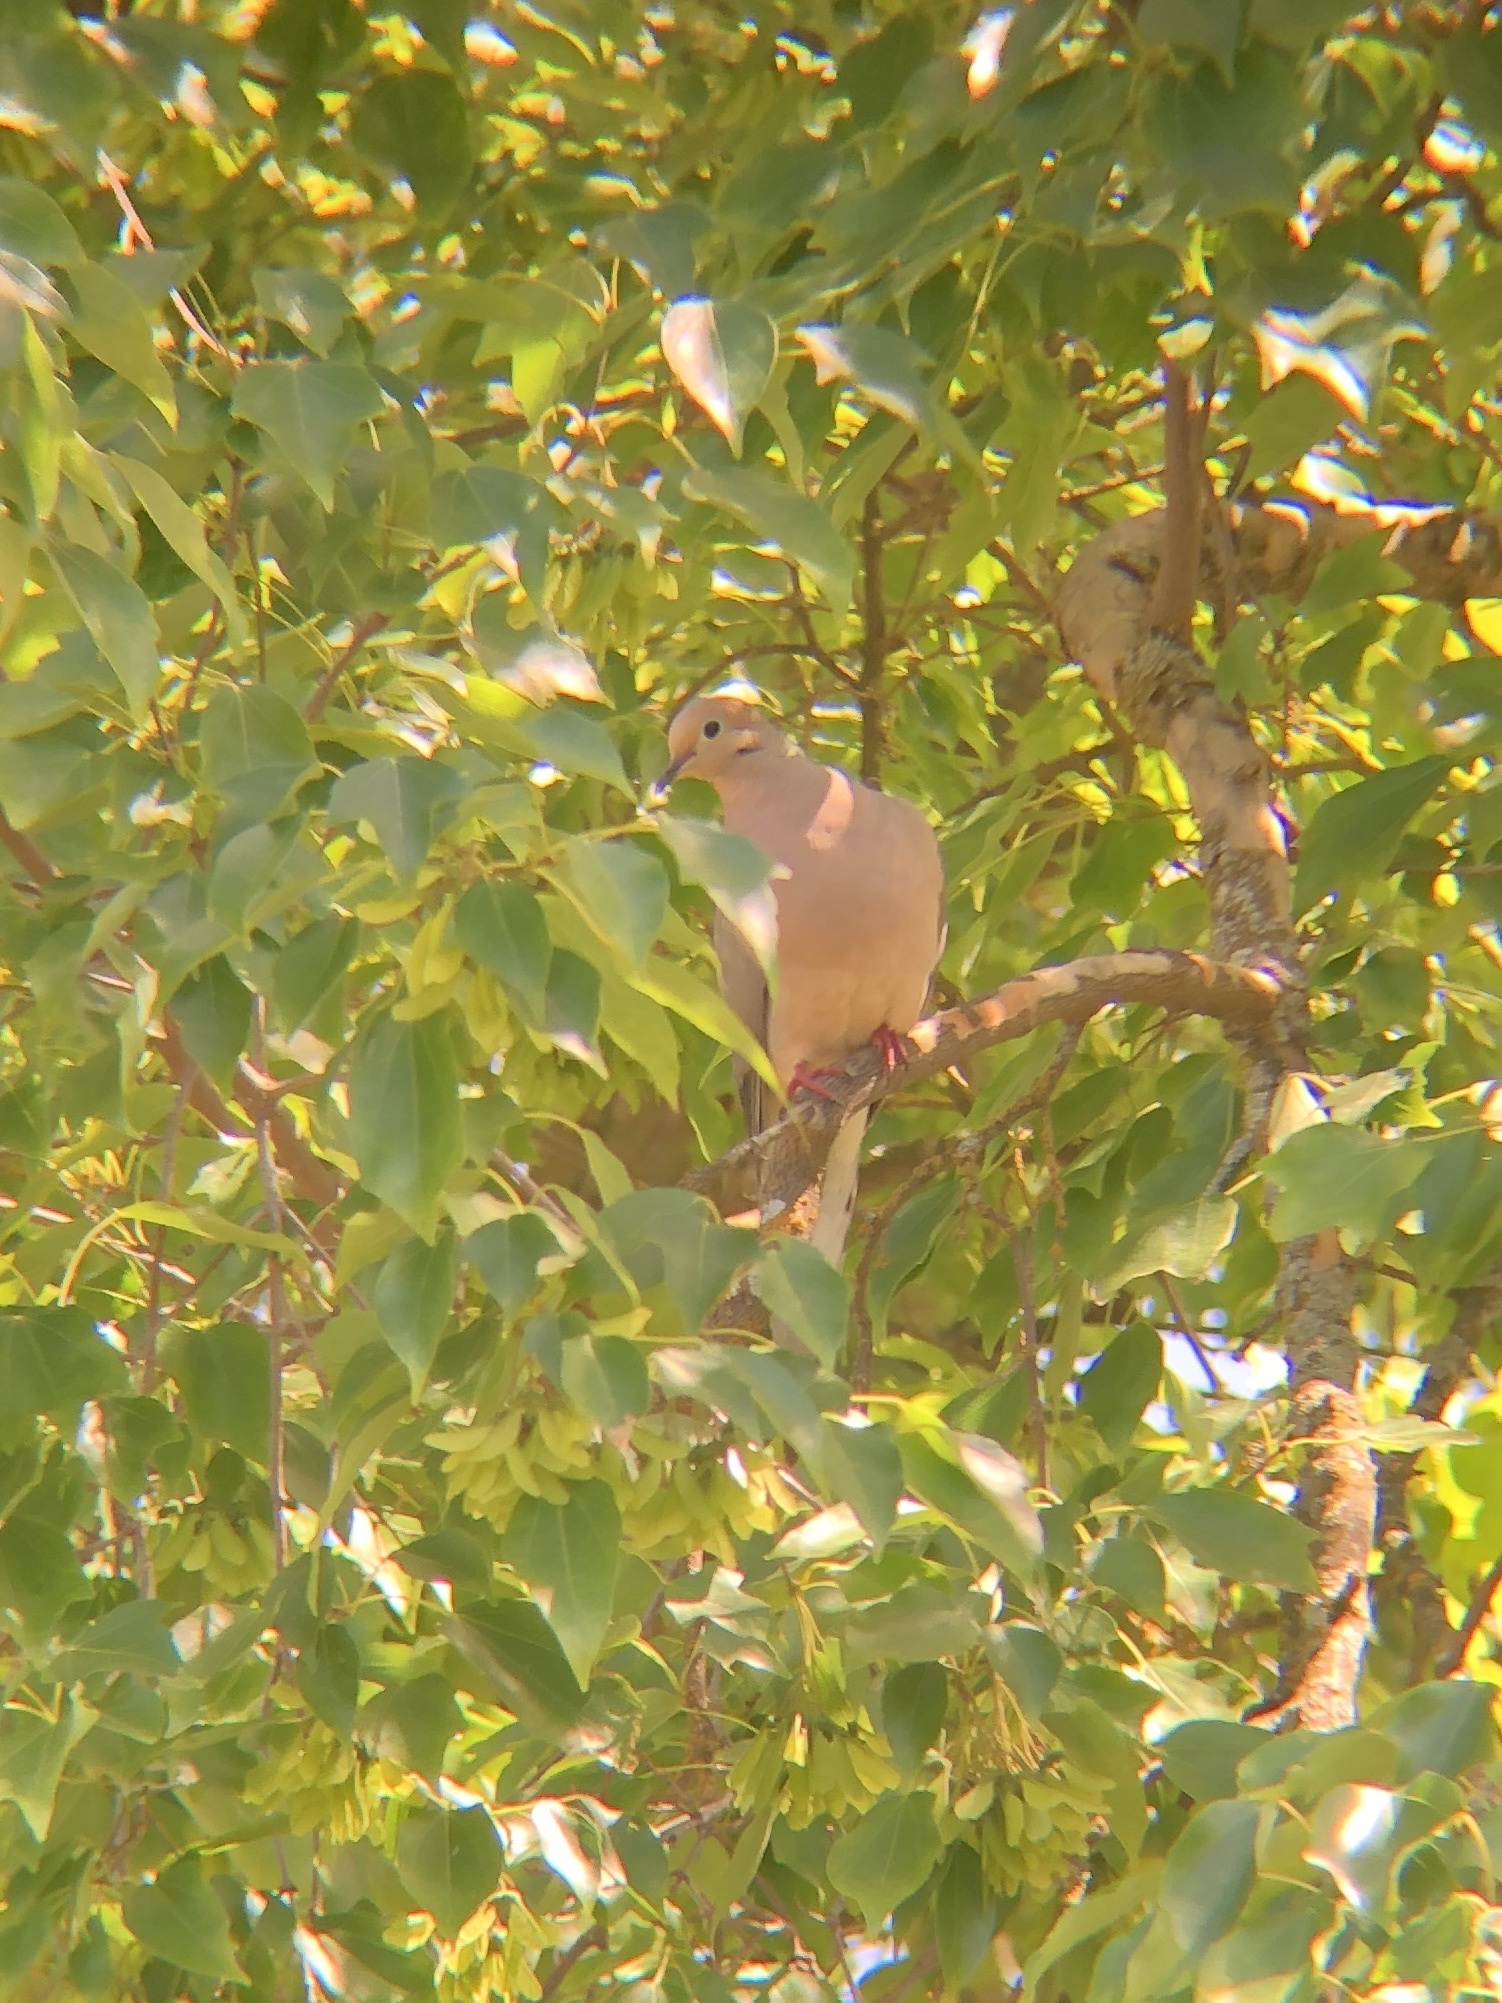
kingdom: Animalia
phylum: Chordata
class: Aves
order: Columbiformes
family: Columbidae
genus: Zenaida
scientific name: Zenaida macroura
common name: Mourning dove
